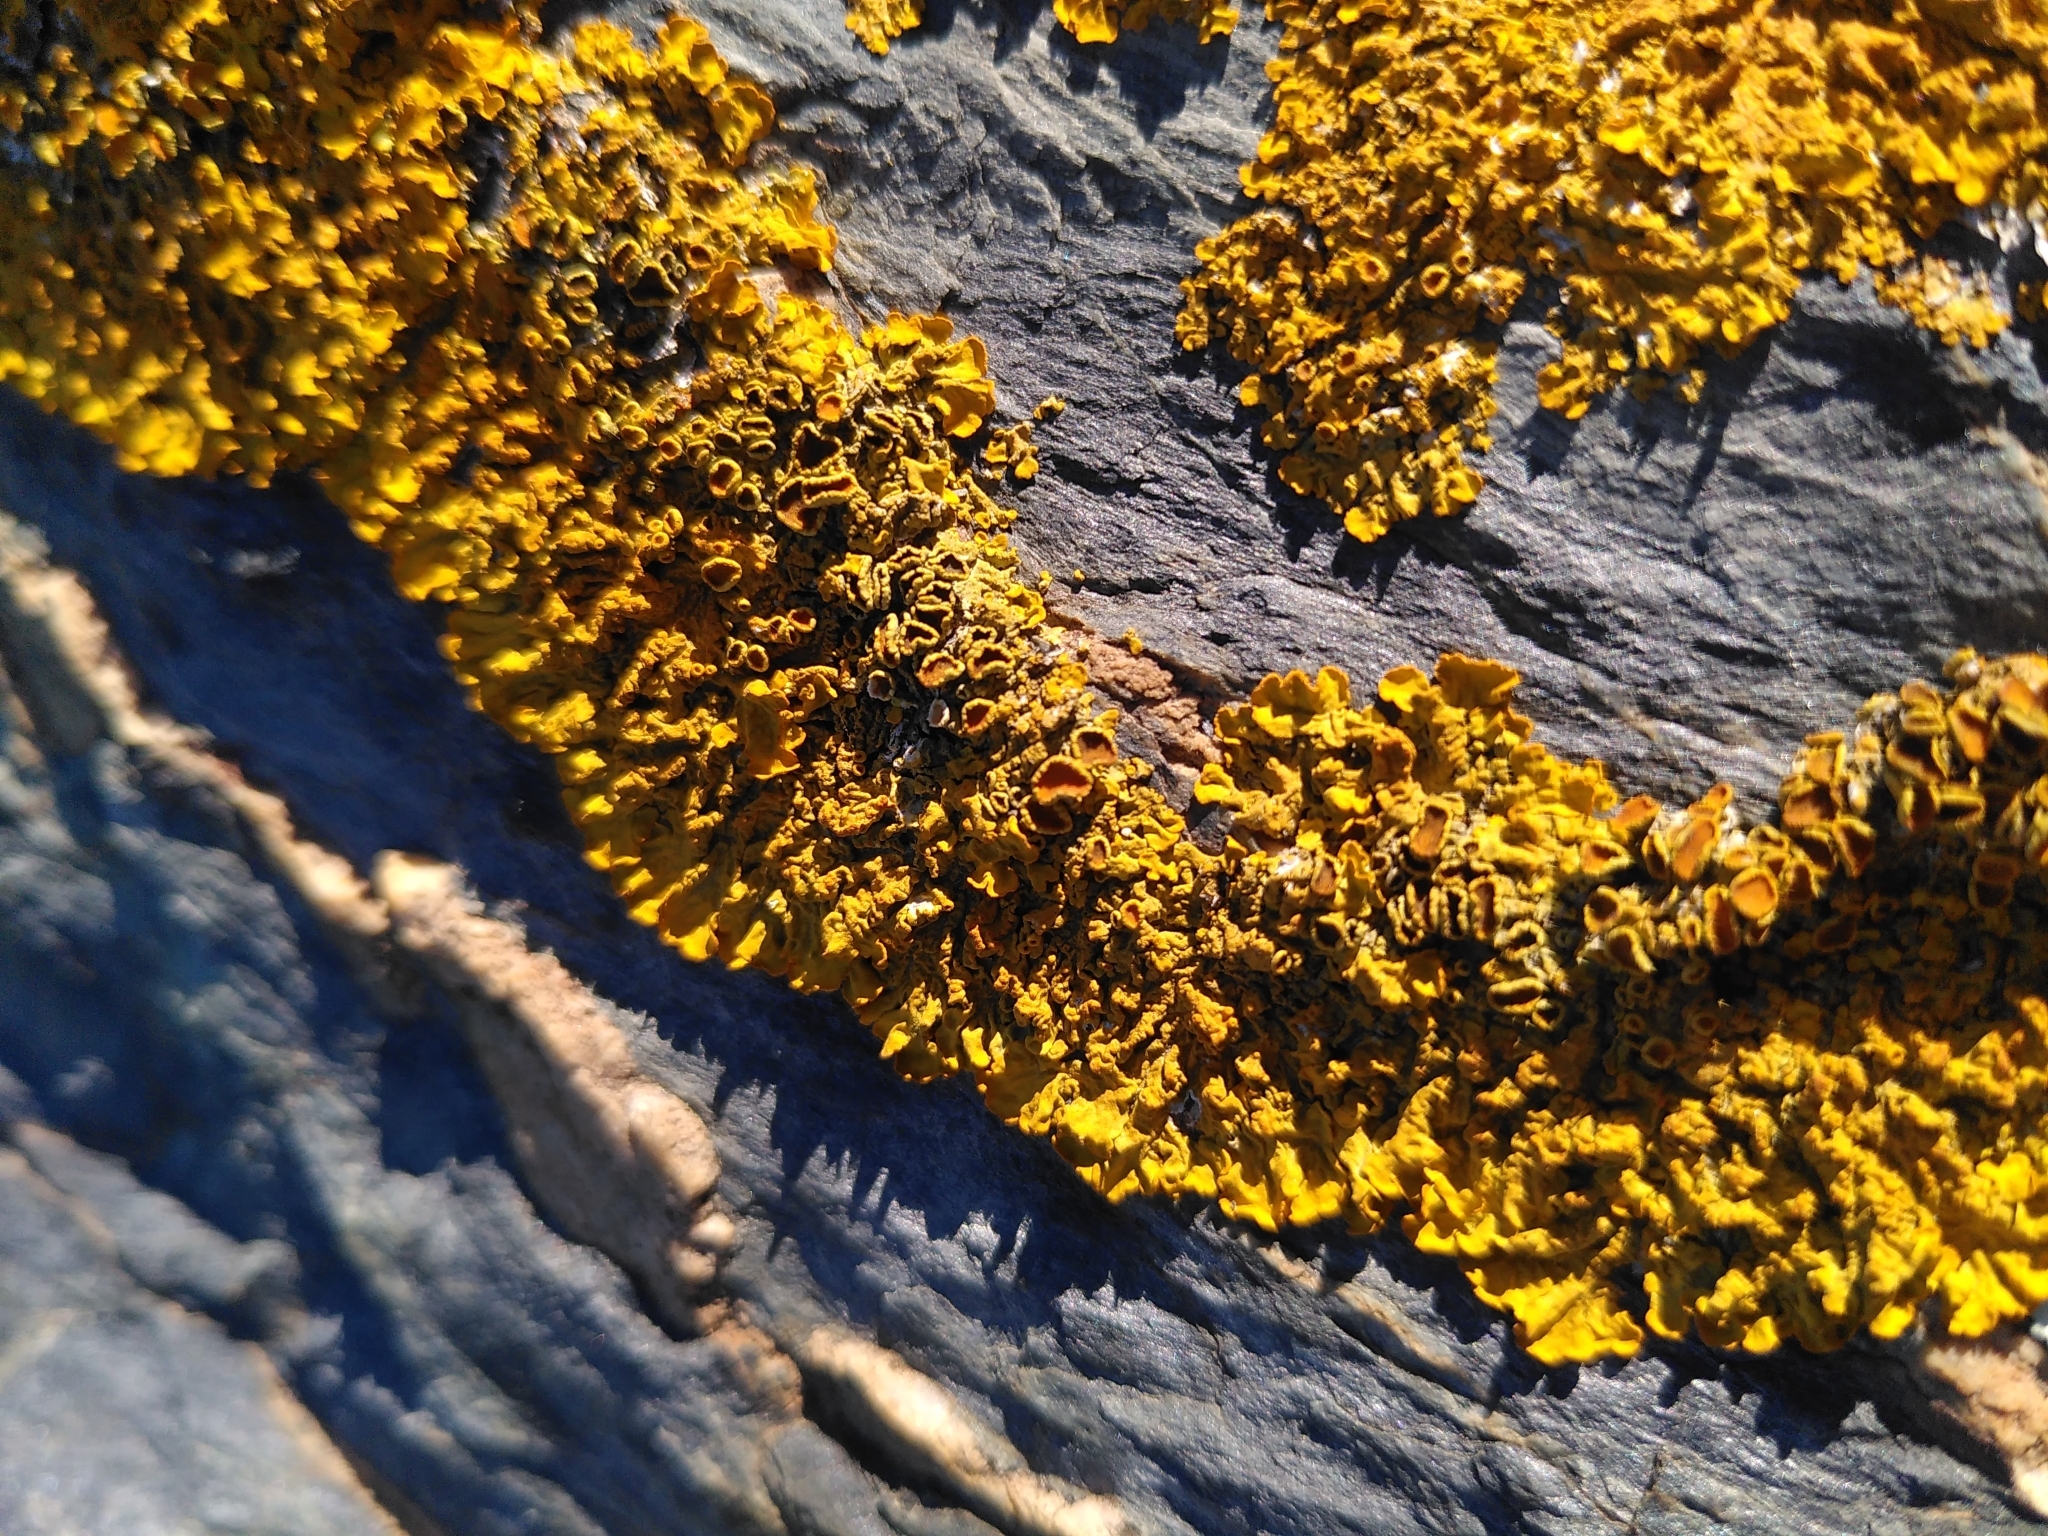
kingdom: Fungi
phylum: Ascomycota
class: Lecanoromycetes
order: Teloschistales
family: Teloschistaceae
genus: Xanthoria
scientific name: Xanthoria calcicola
